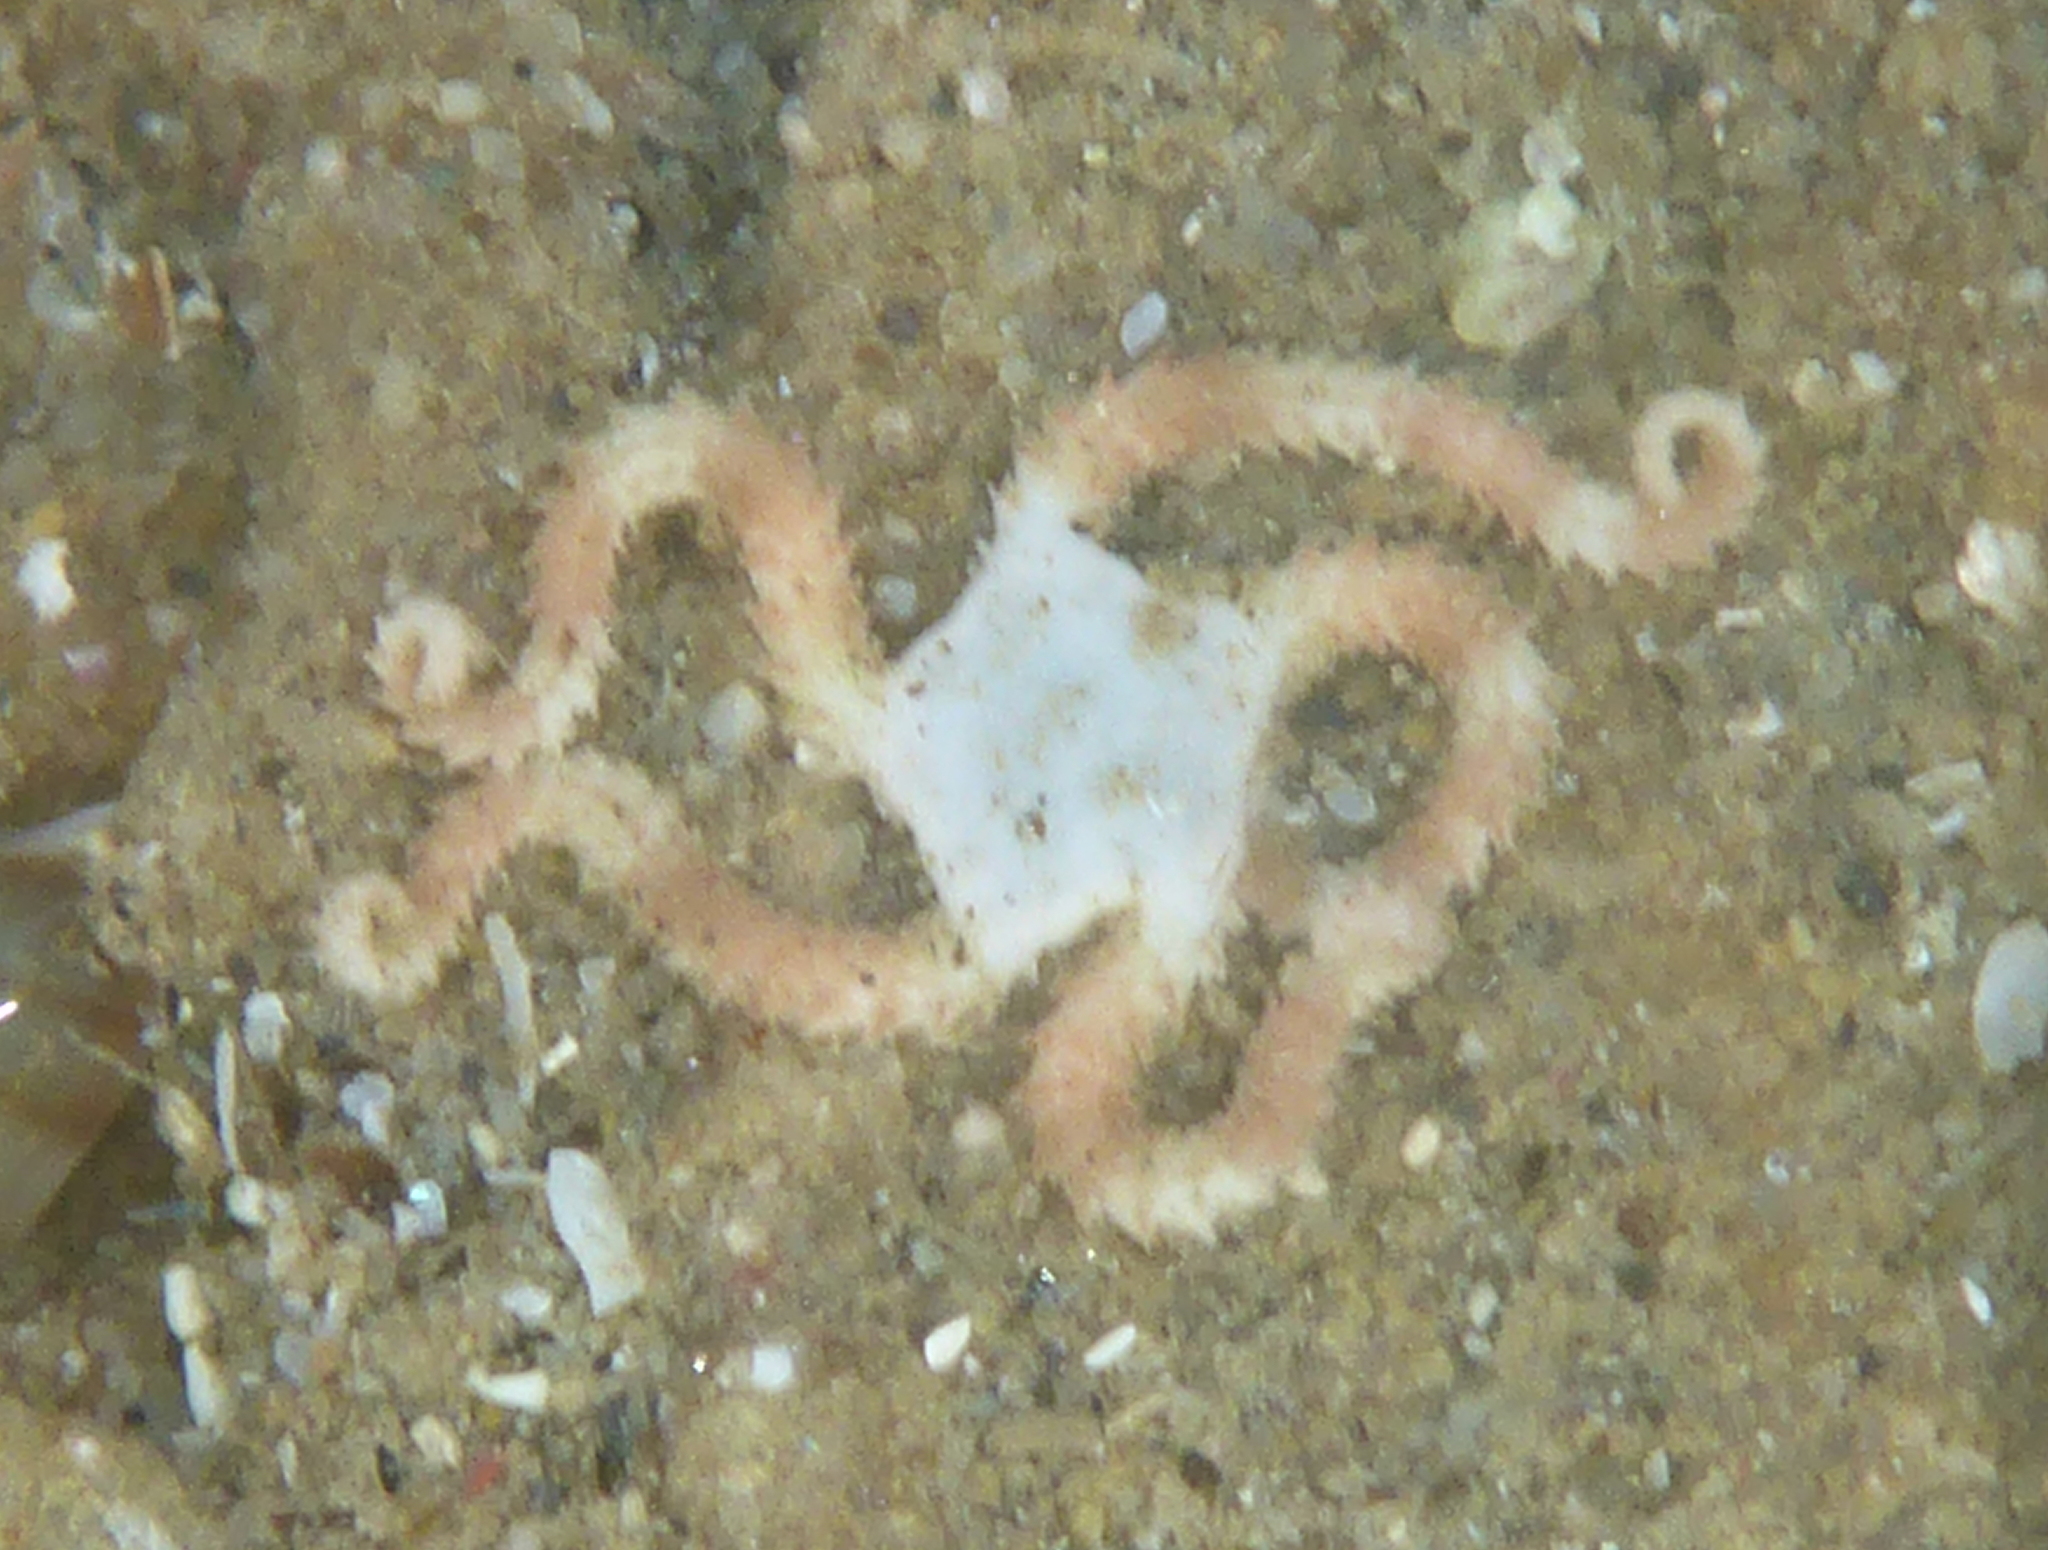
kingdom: Animalia
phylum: Echinodermata
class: Ophiuroidea
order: Ophiacanthida
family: Ophiodermatidae
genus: Ophioderma
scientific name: Ophioderma panamense
